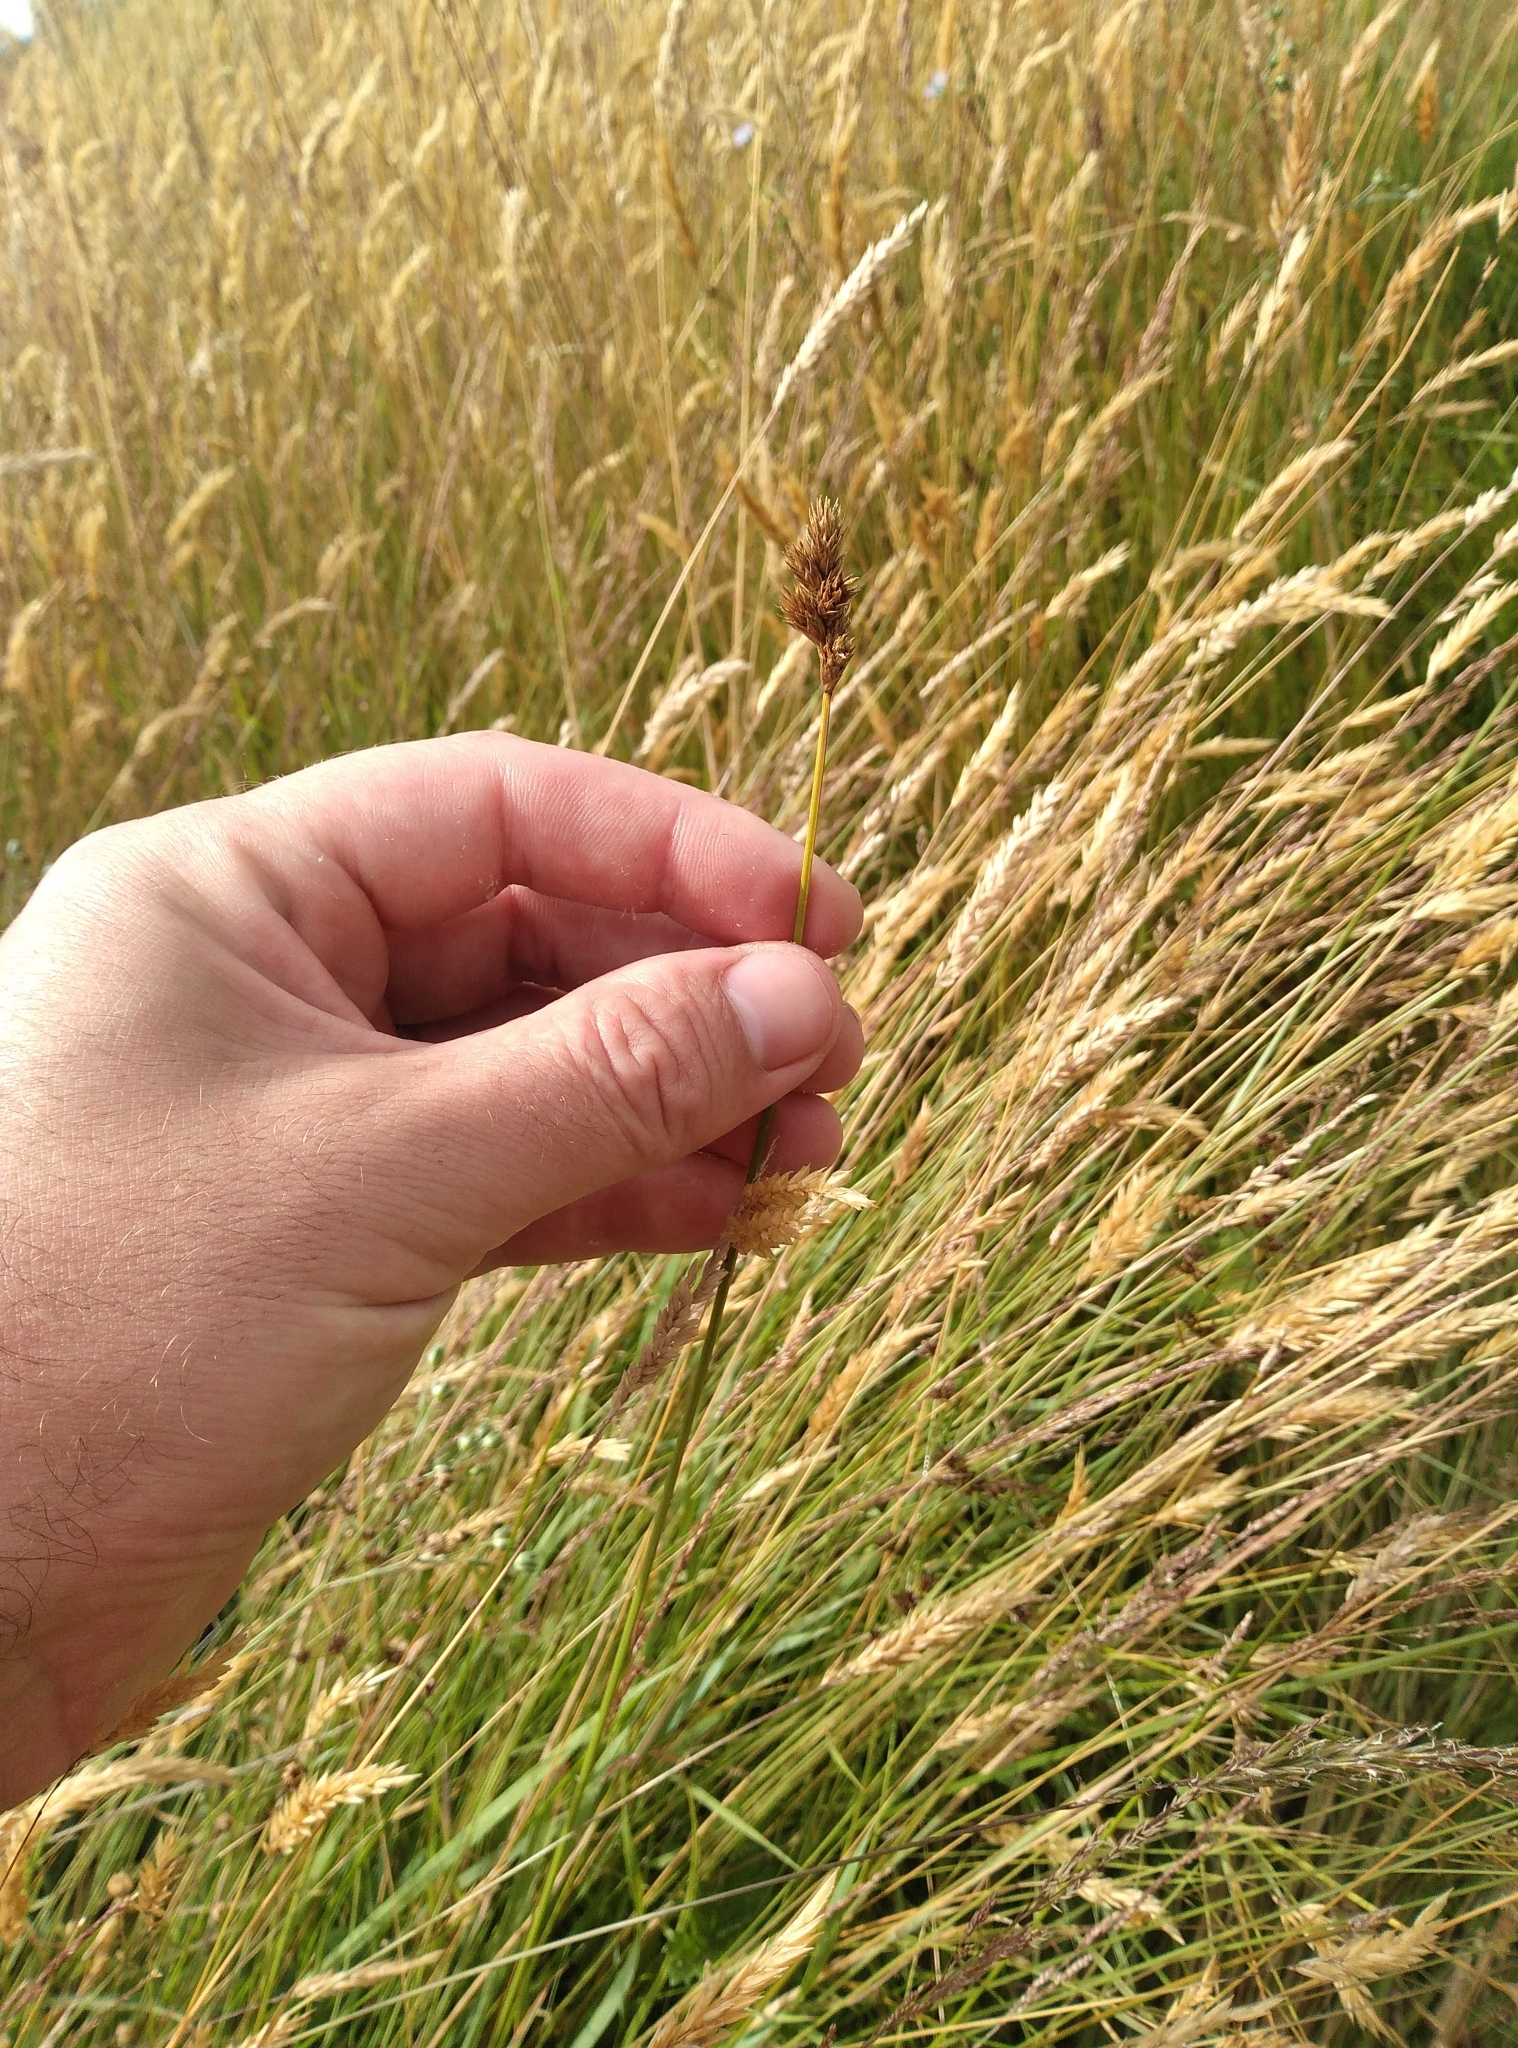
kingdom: Plantae
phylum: Tracheophyta
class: Liliopsida
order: Poales
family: Cyperaceae
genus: Carex
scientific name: Carex leporina
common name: Oval sedge
